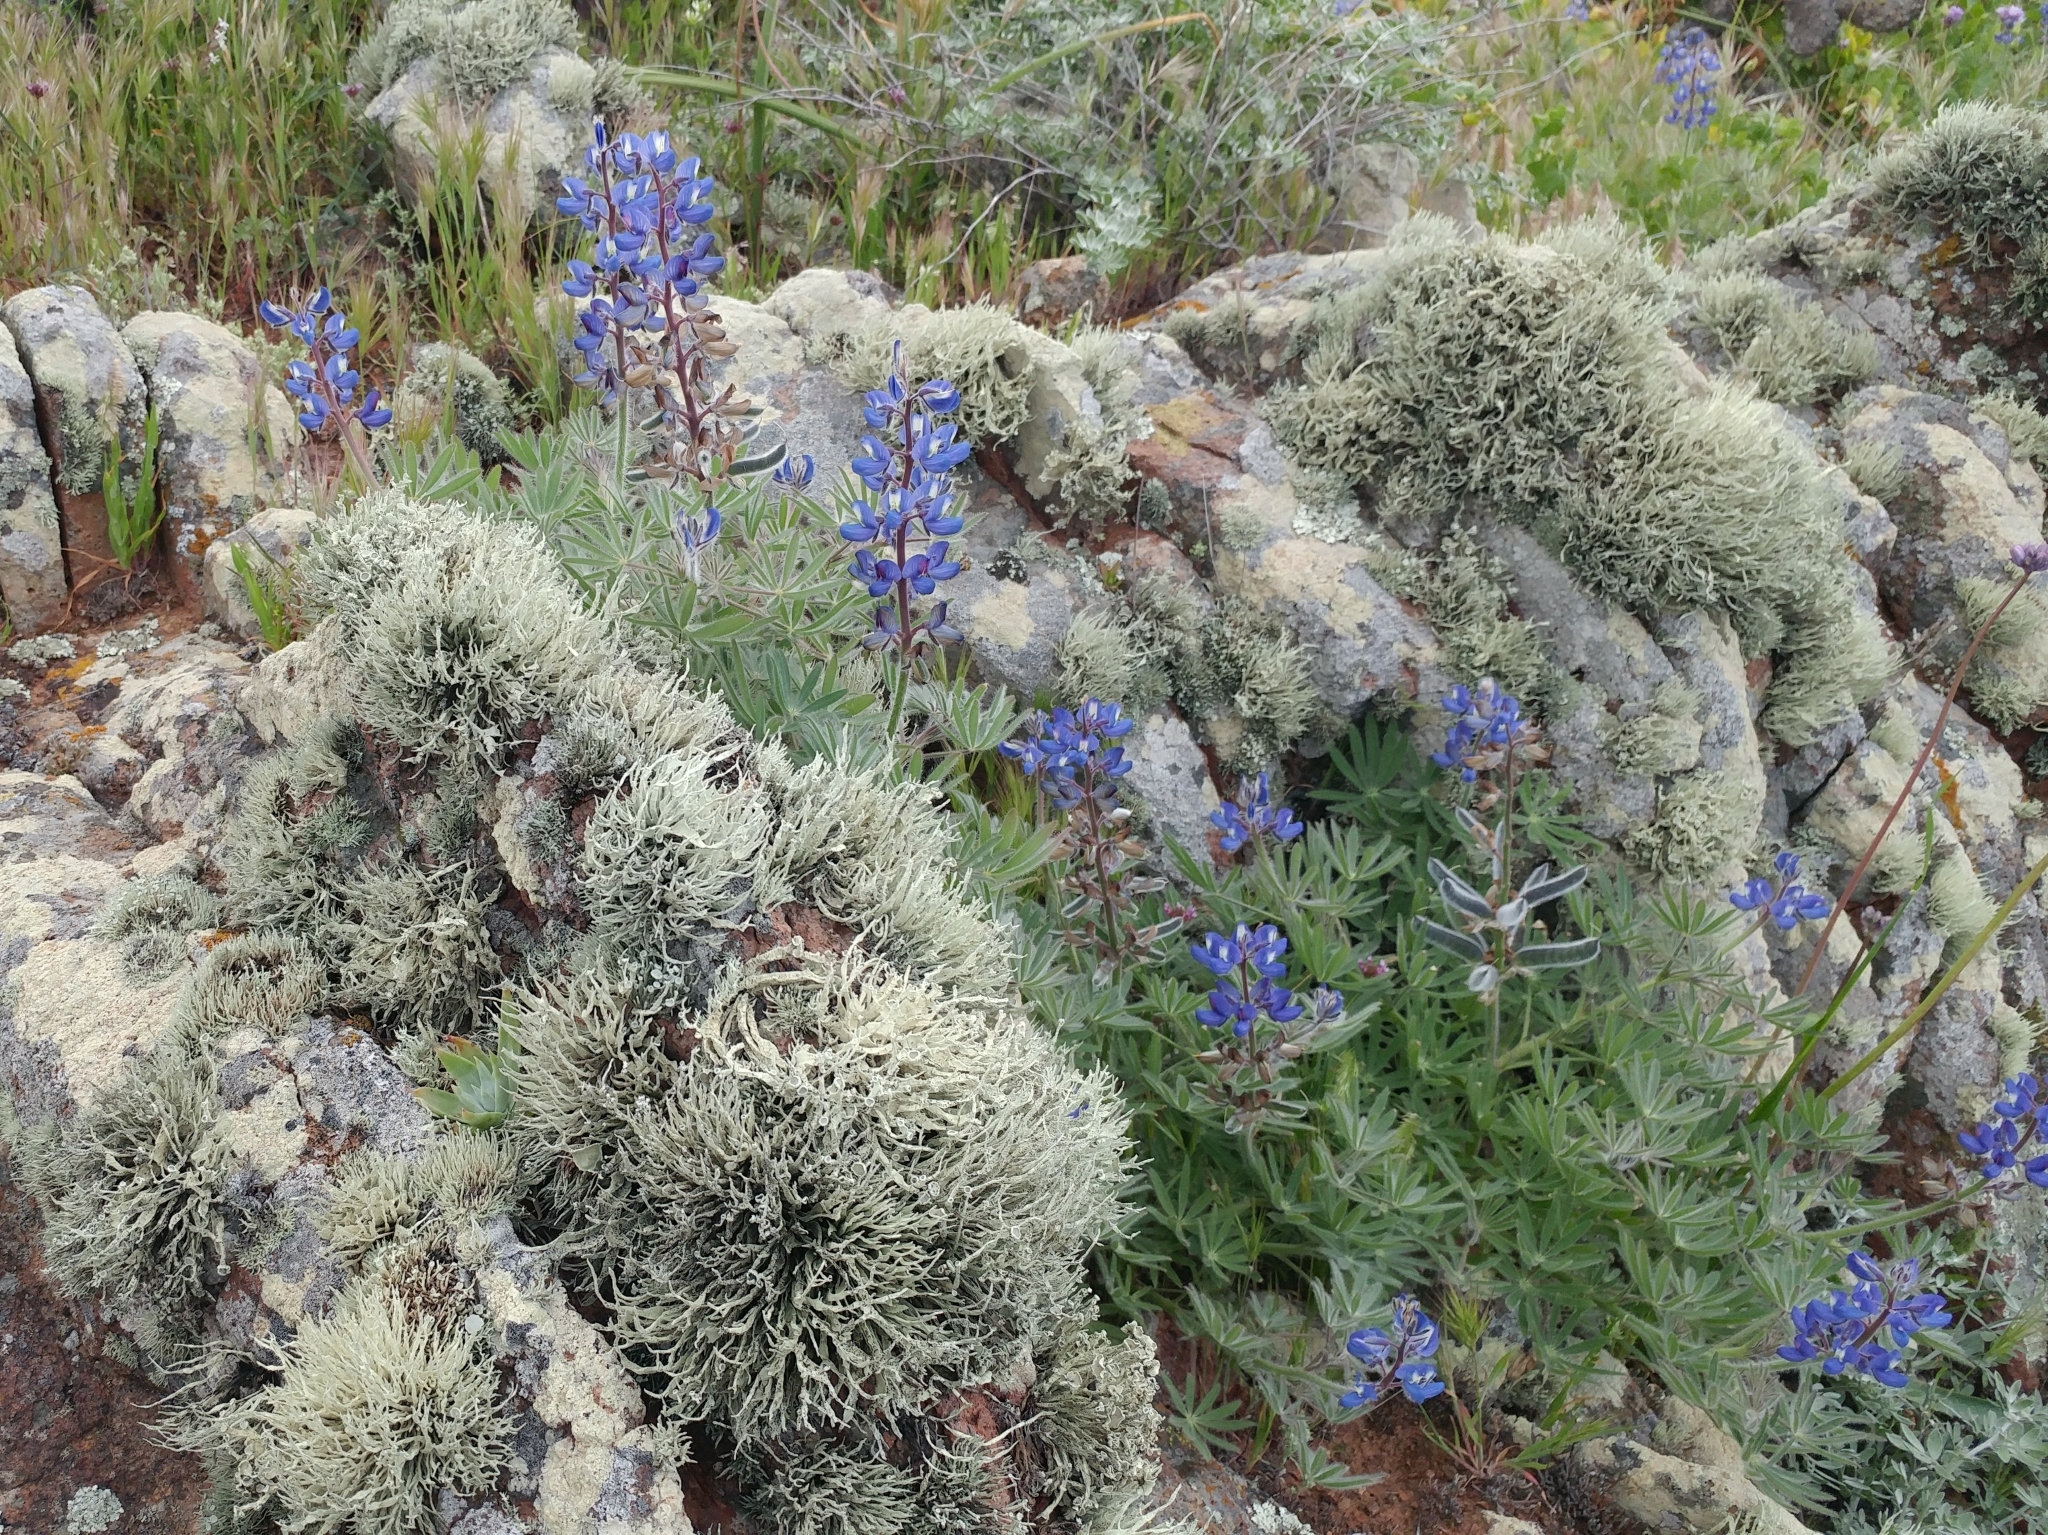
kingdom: Plantae
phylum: Tracheophyta
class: Magnoliopsida
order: Fabales
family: Fabaceae
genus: Lupinus
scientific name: Lupinus guadalupensis
